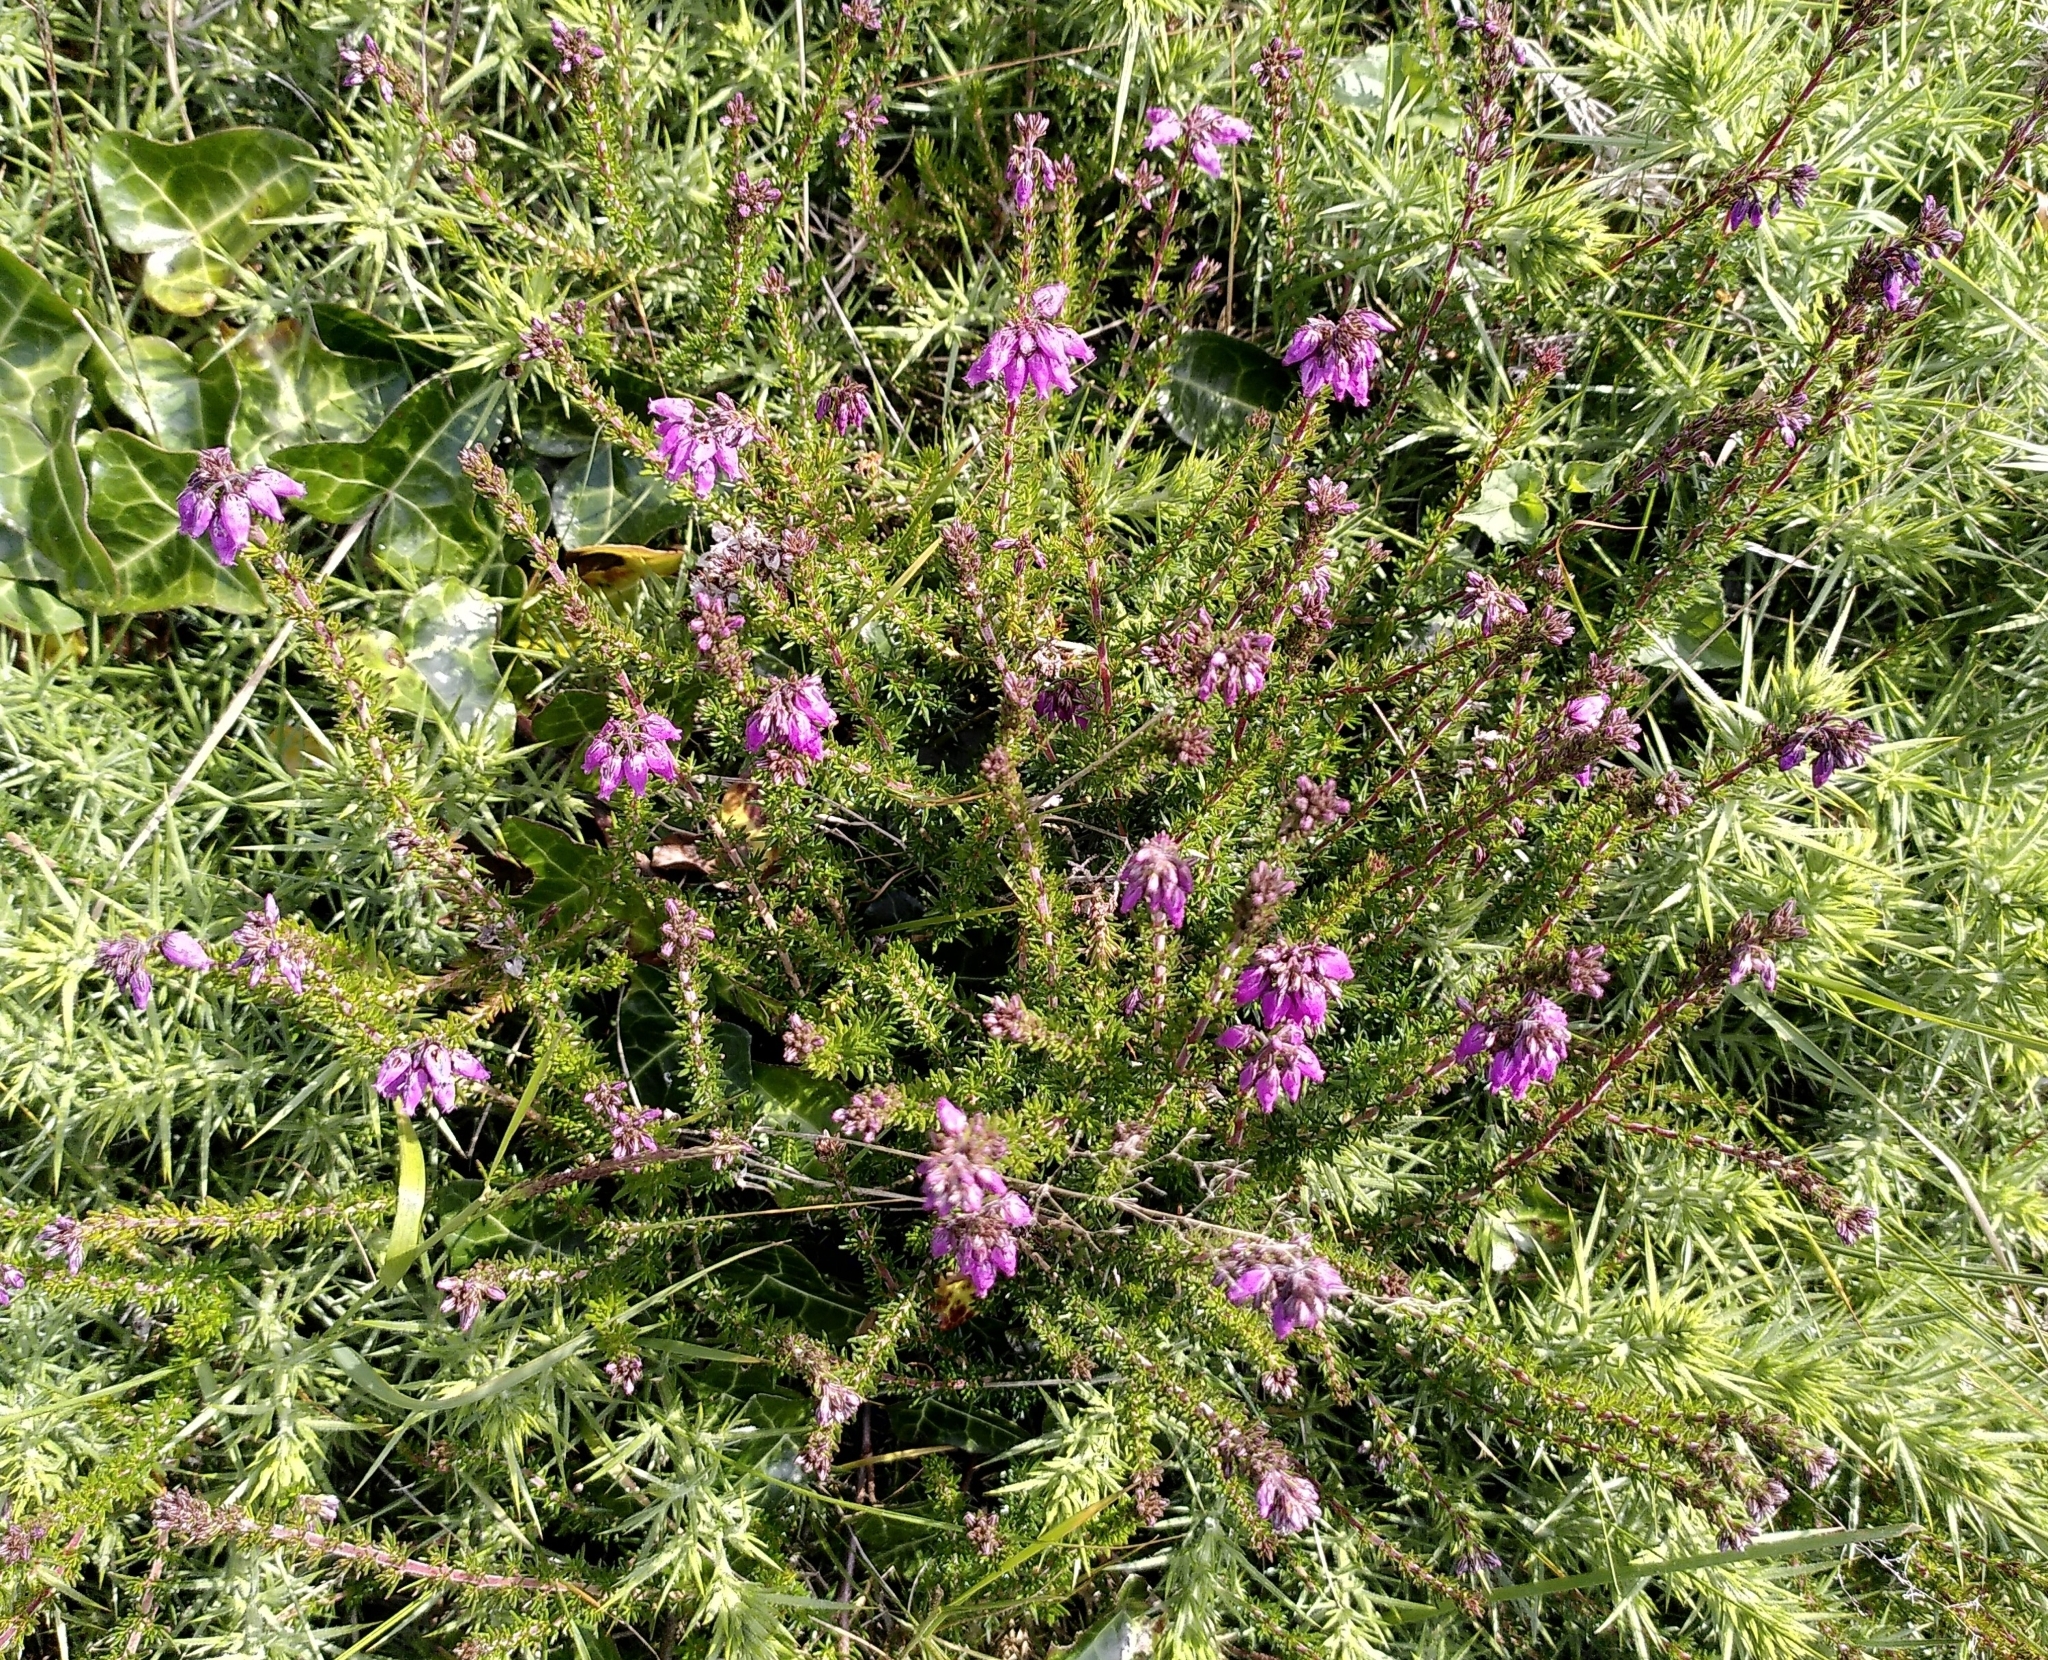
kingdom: Plantae
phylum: Tracheophyta
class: Magnoliopsida
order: Ericales
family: Ericaceae
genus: Erica
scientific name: Erica cinerea
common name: Bell heather
